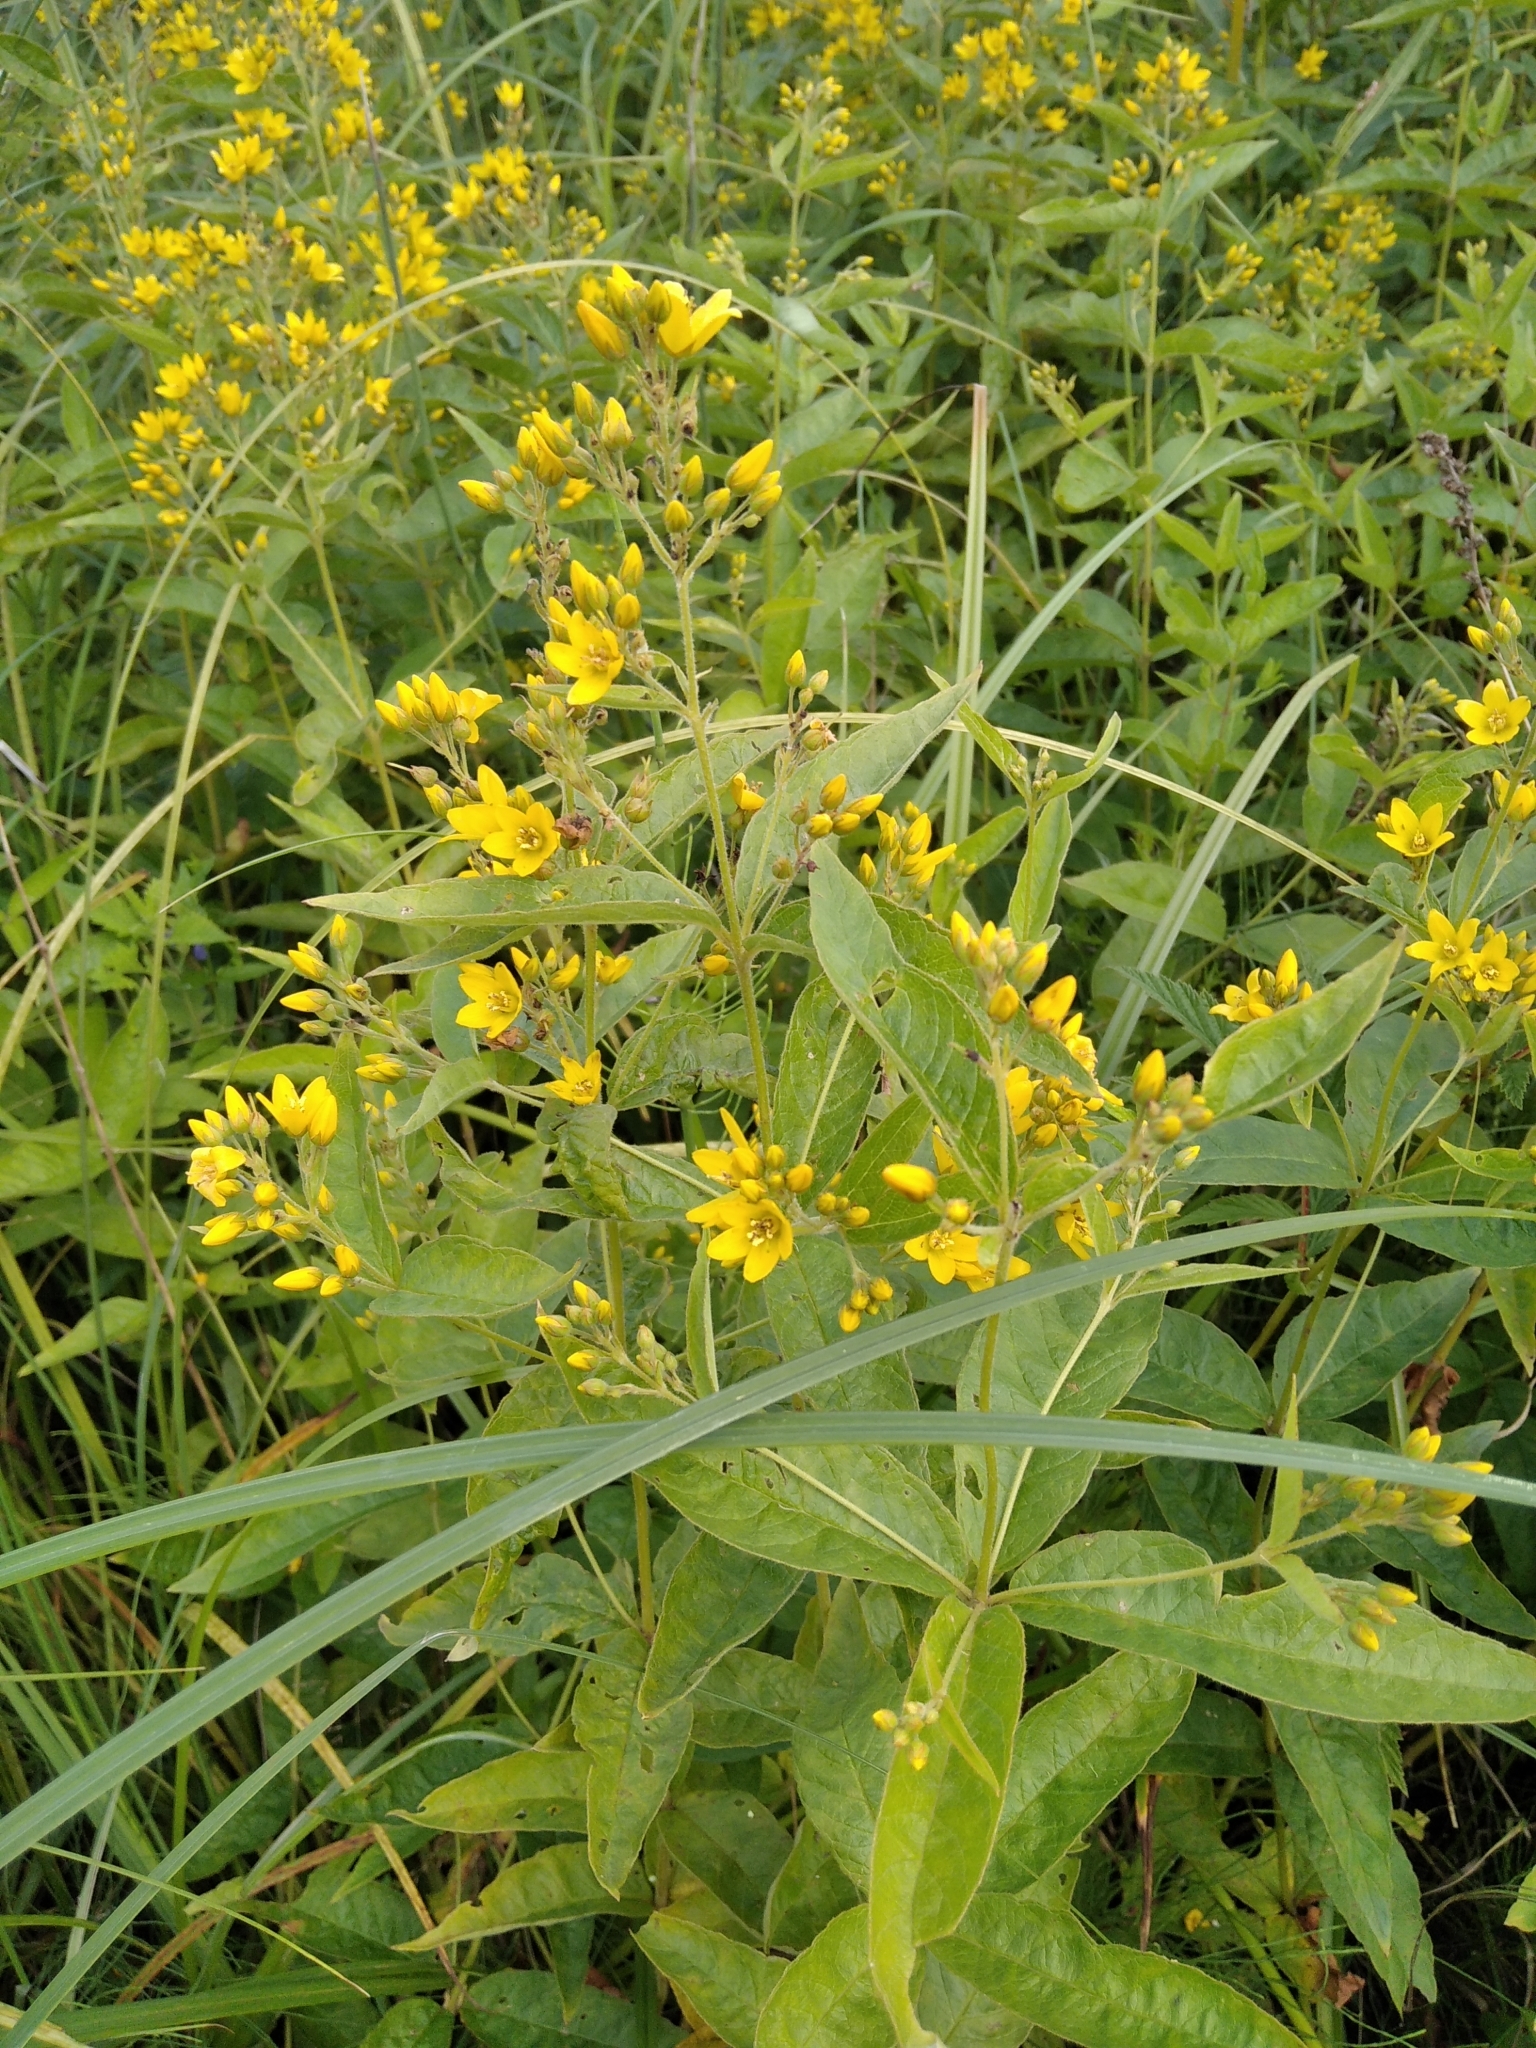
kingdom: Plantae
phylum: Tracheophyta
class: Magnoliopsida
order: Ericales
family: Primulaceae
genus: Lysimachia
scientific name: Lysimachia vulgaris
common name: Yellow loosestrife
